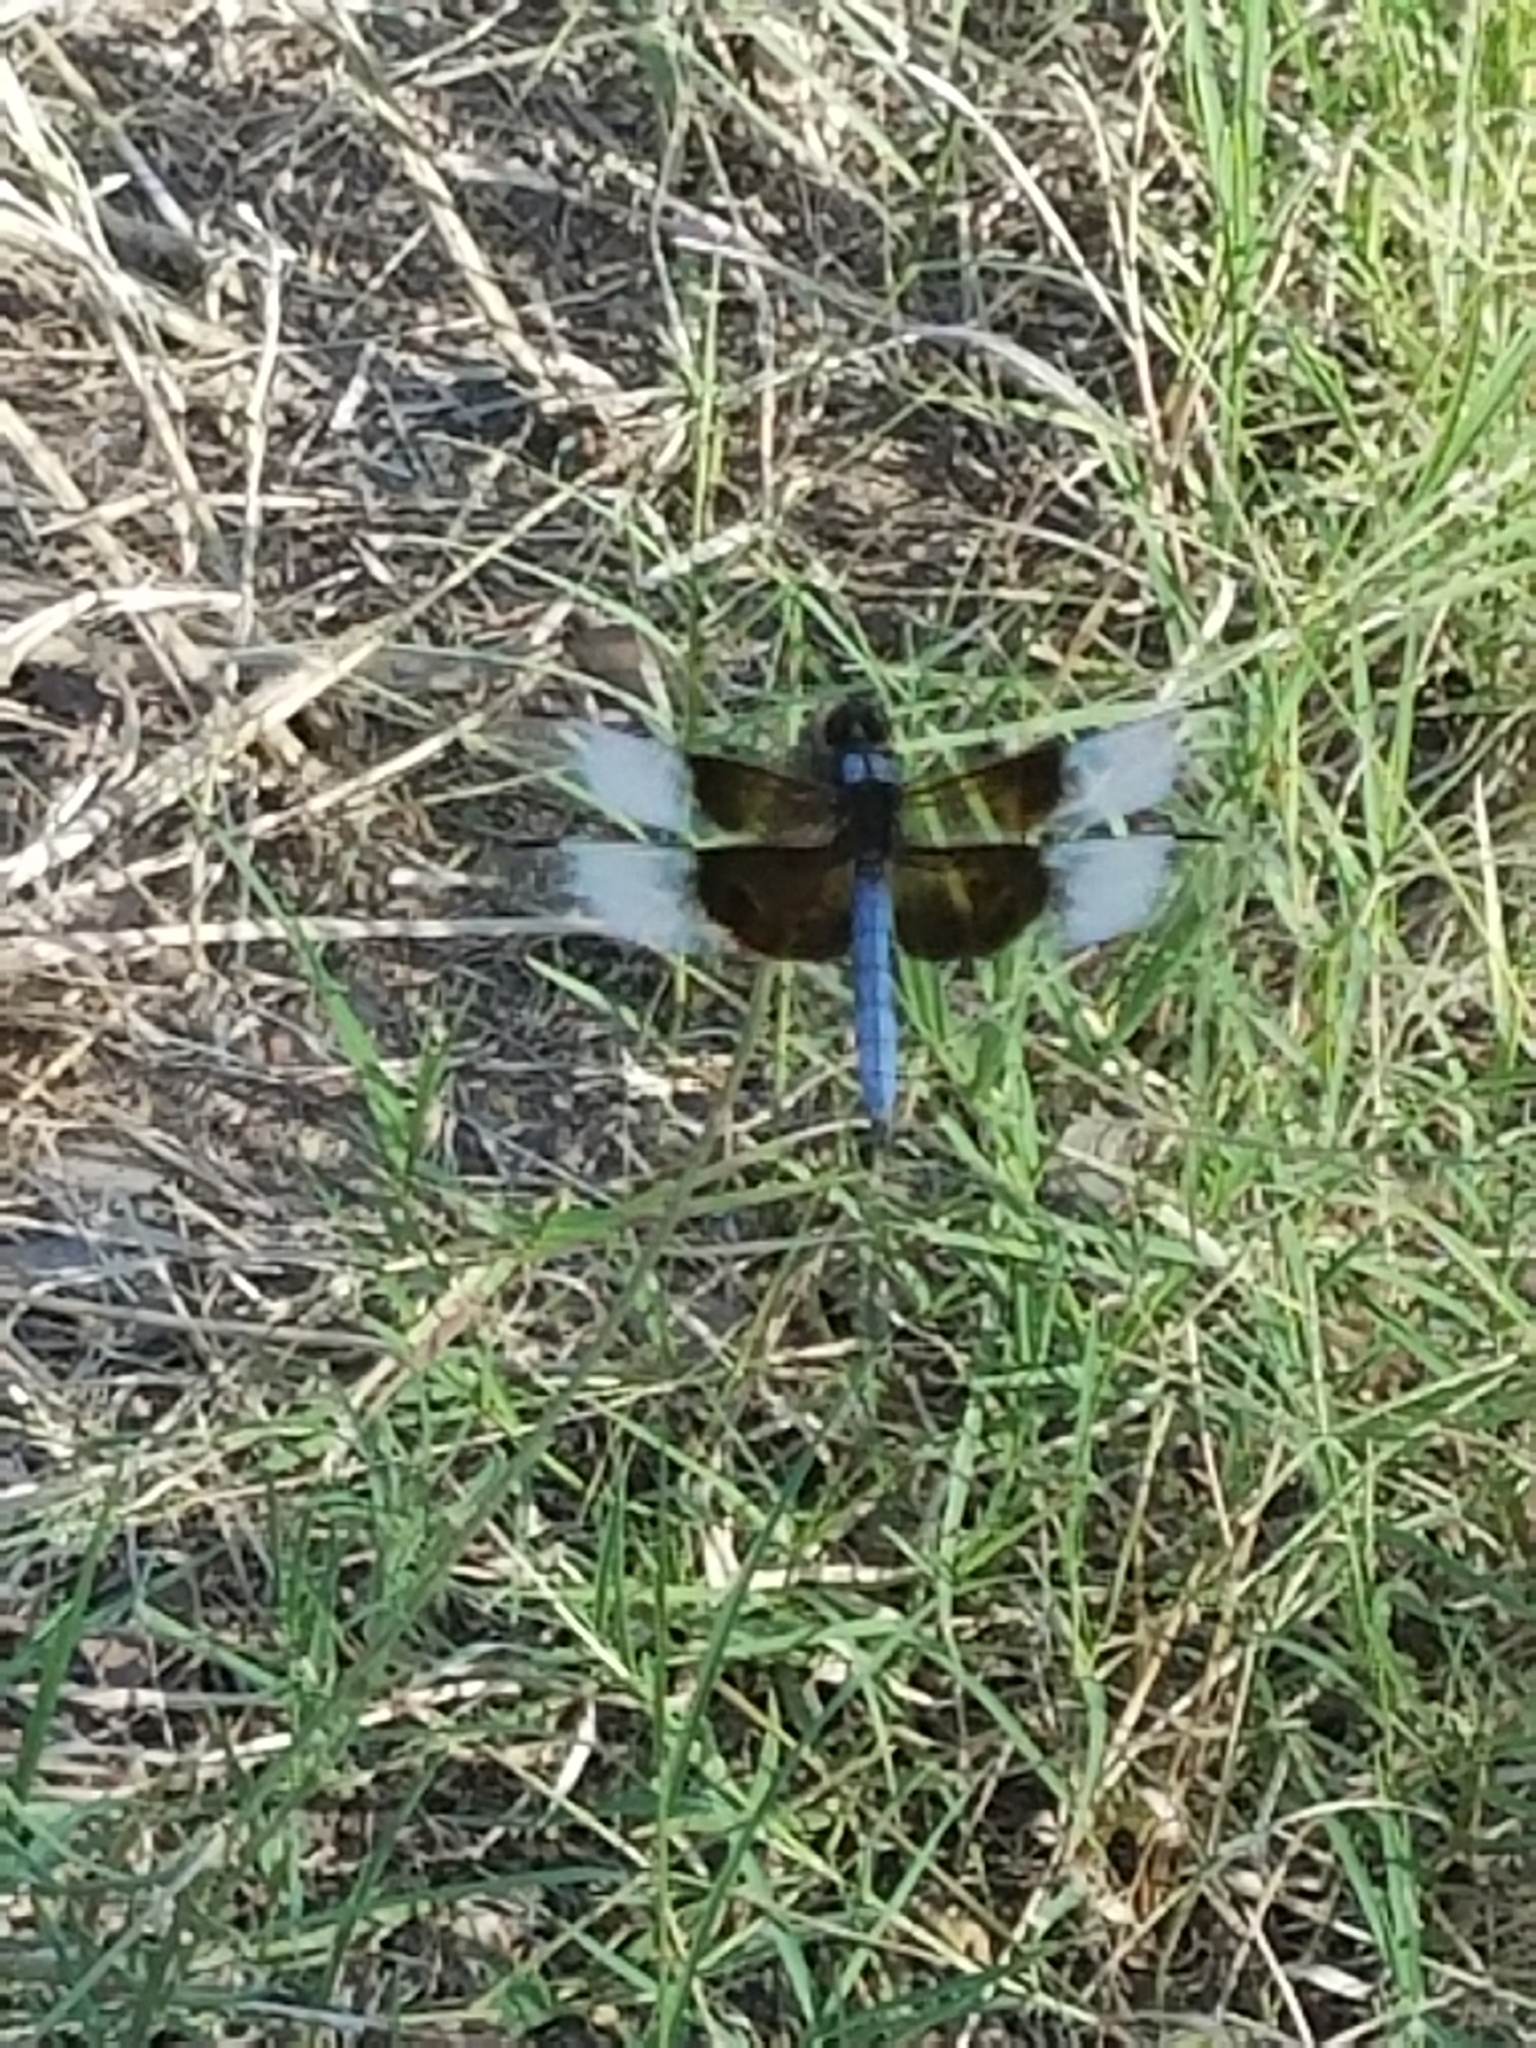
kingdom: Animalia
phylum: Arthropoda
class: Insecta
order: Odonata
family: Libellulidae
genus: Libellula
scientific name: Libellula luctuosa
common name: Widow skimmer
